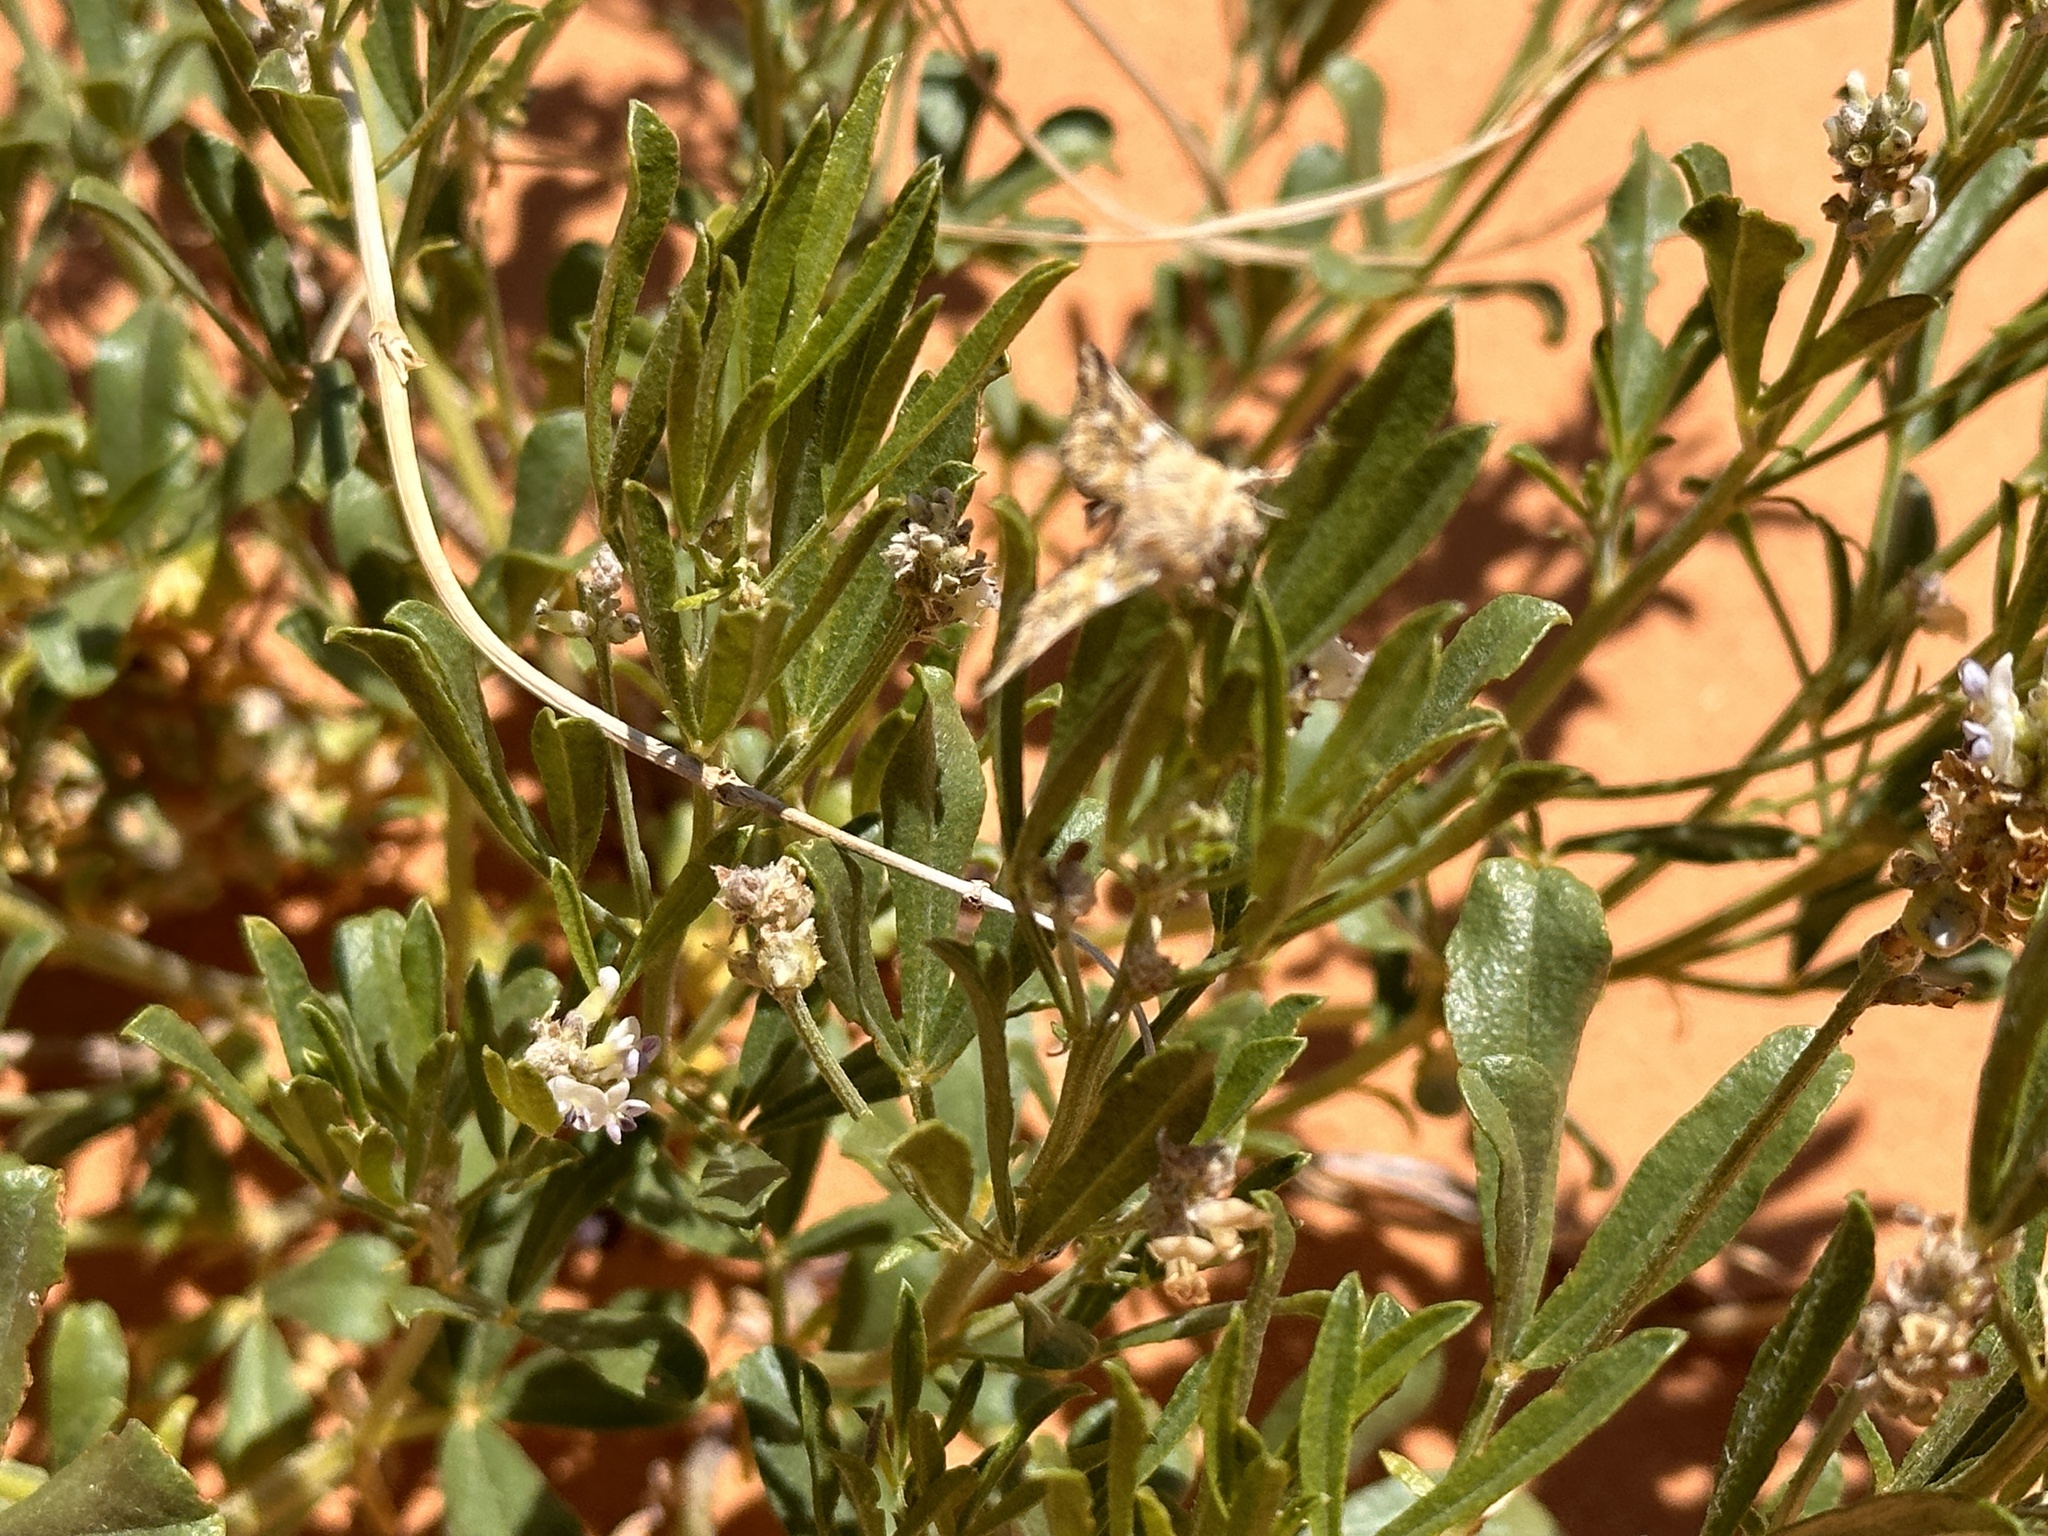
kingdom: Plantae
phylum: Tracheophyta
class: Magnoliopsida
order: Fabales
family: Fabaceae
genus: Ladeania
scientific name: Ladeania lanceolata
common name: Dune scurf-pea
